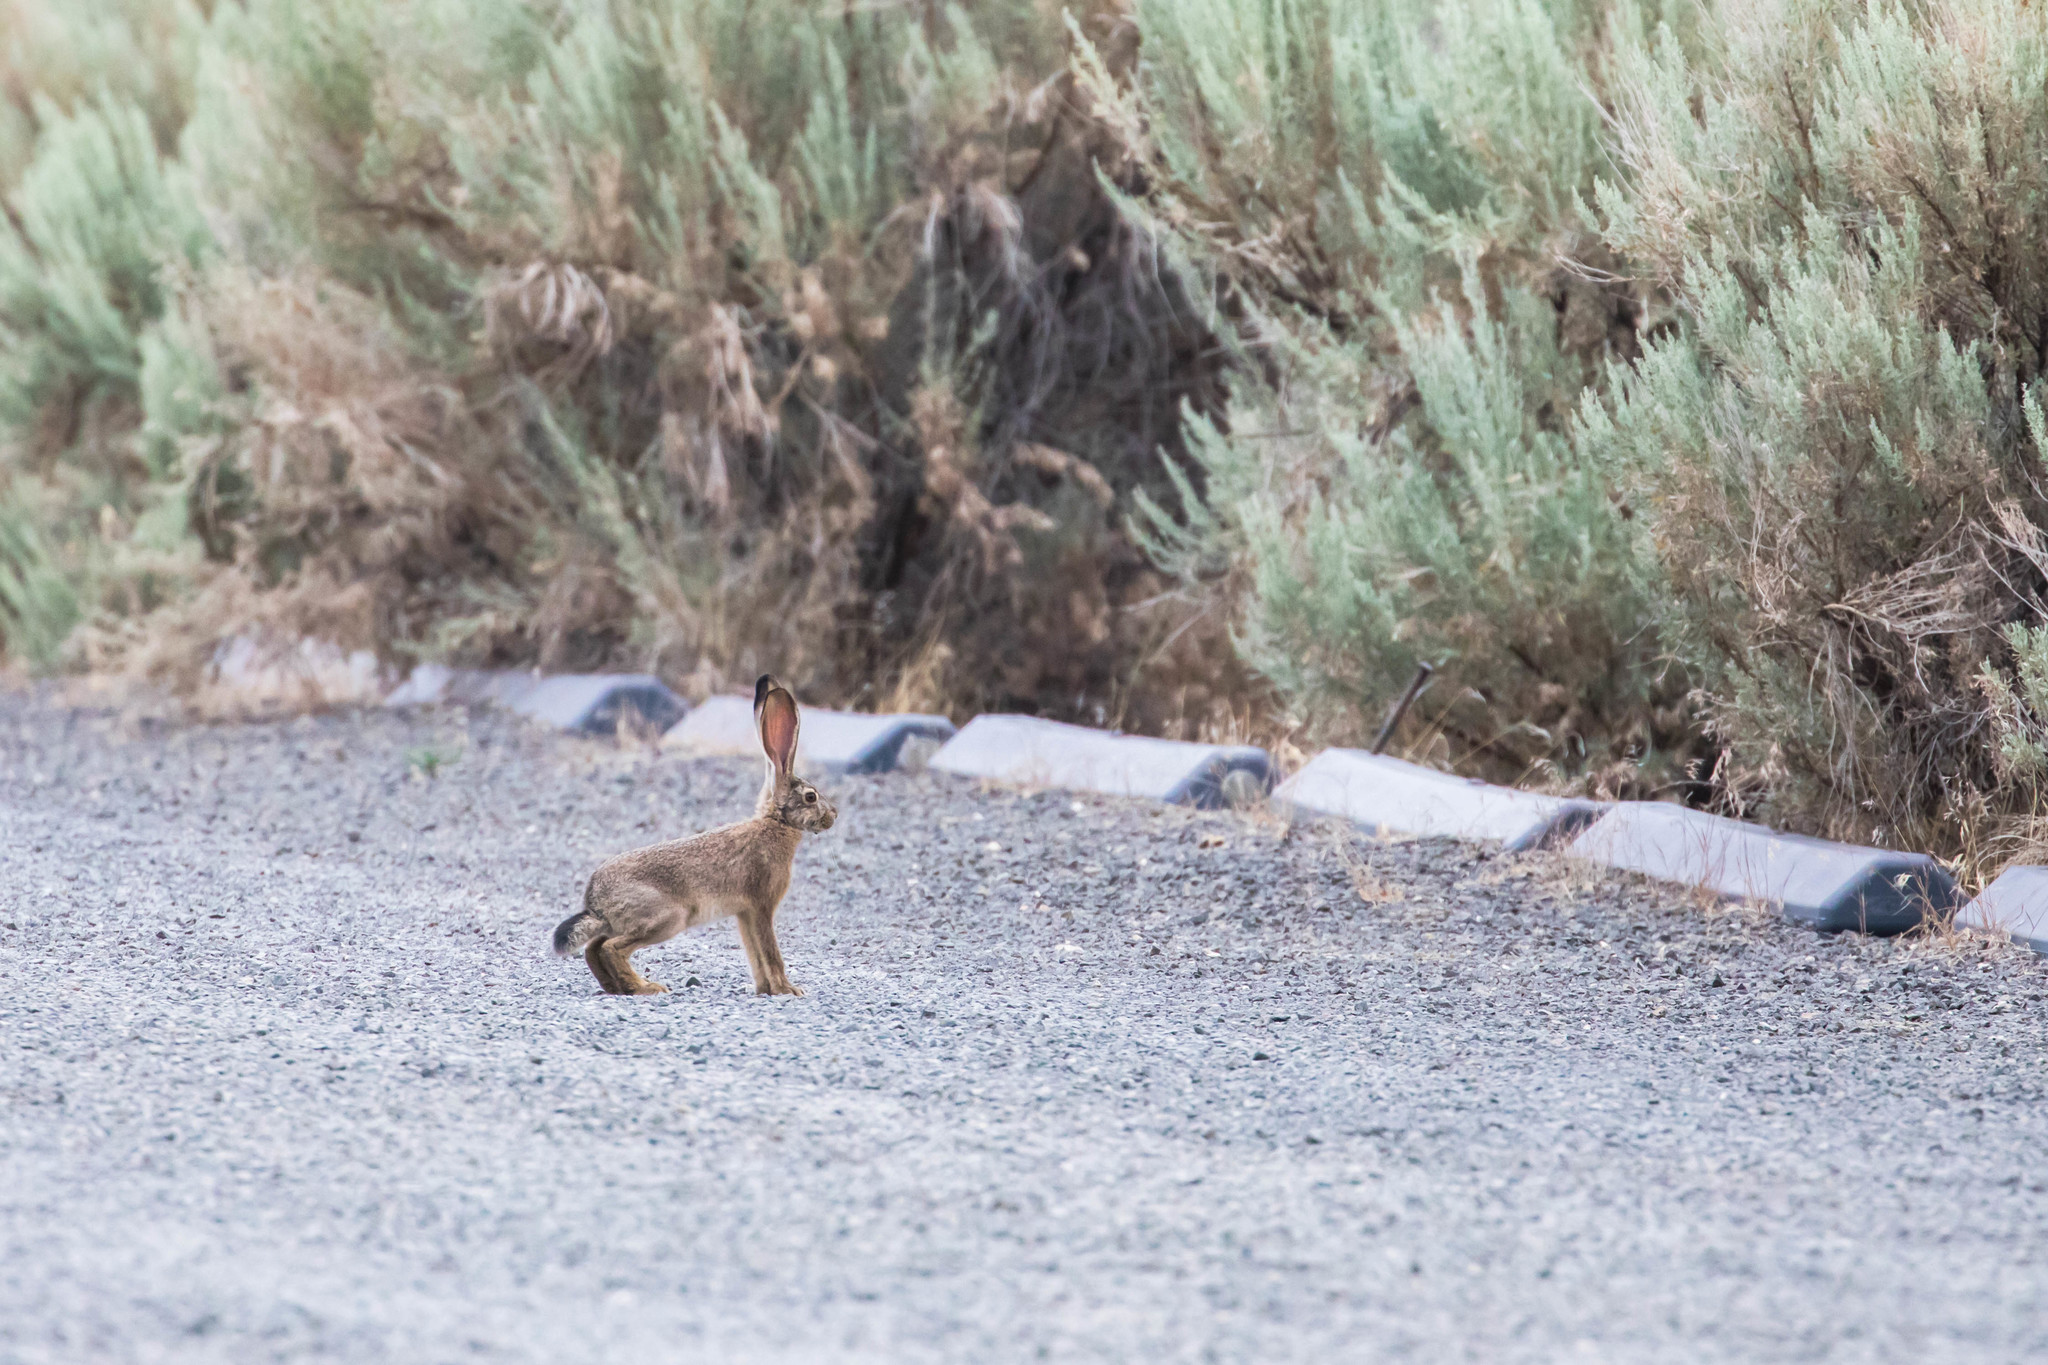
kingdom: Animalia
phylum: Chordata
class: Mammalia
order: Lagomorpha
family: Leporidae
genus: Lepus
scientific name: Lepus californicus
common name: Black-tailed jackrabbit
